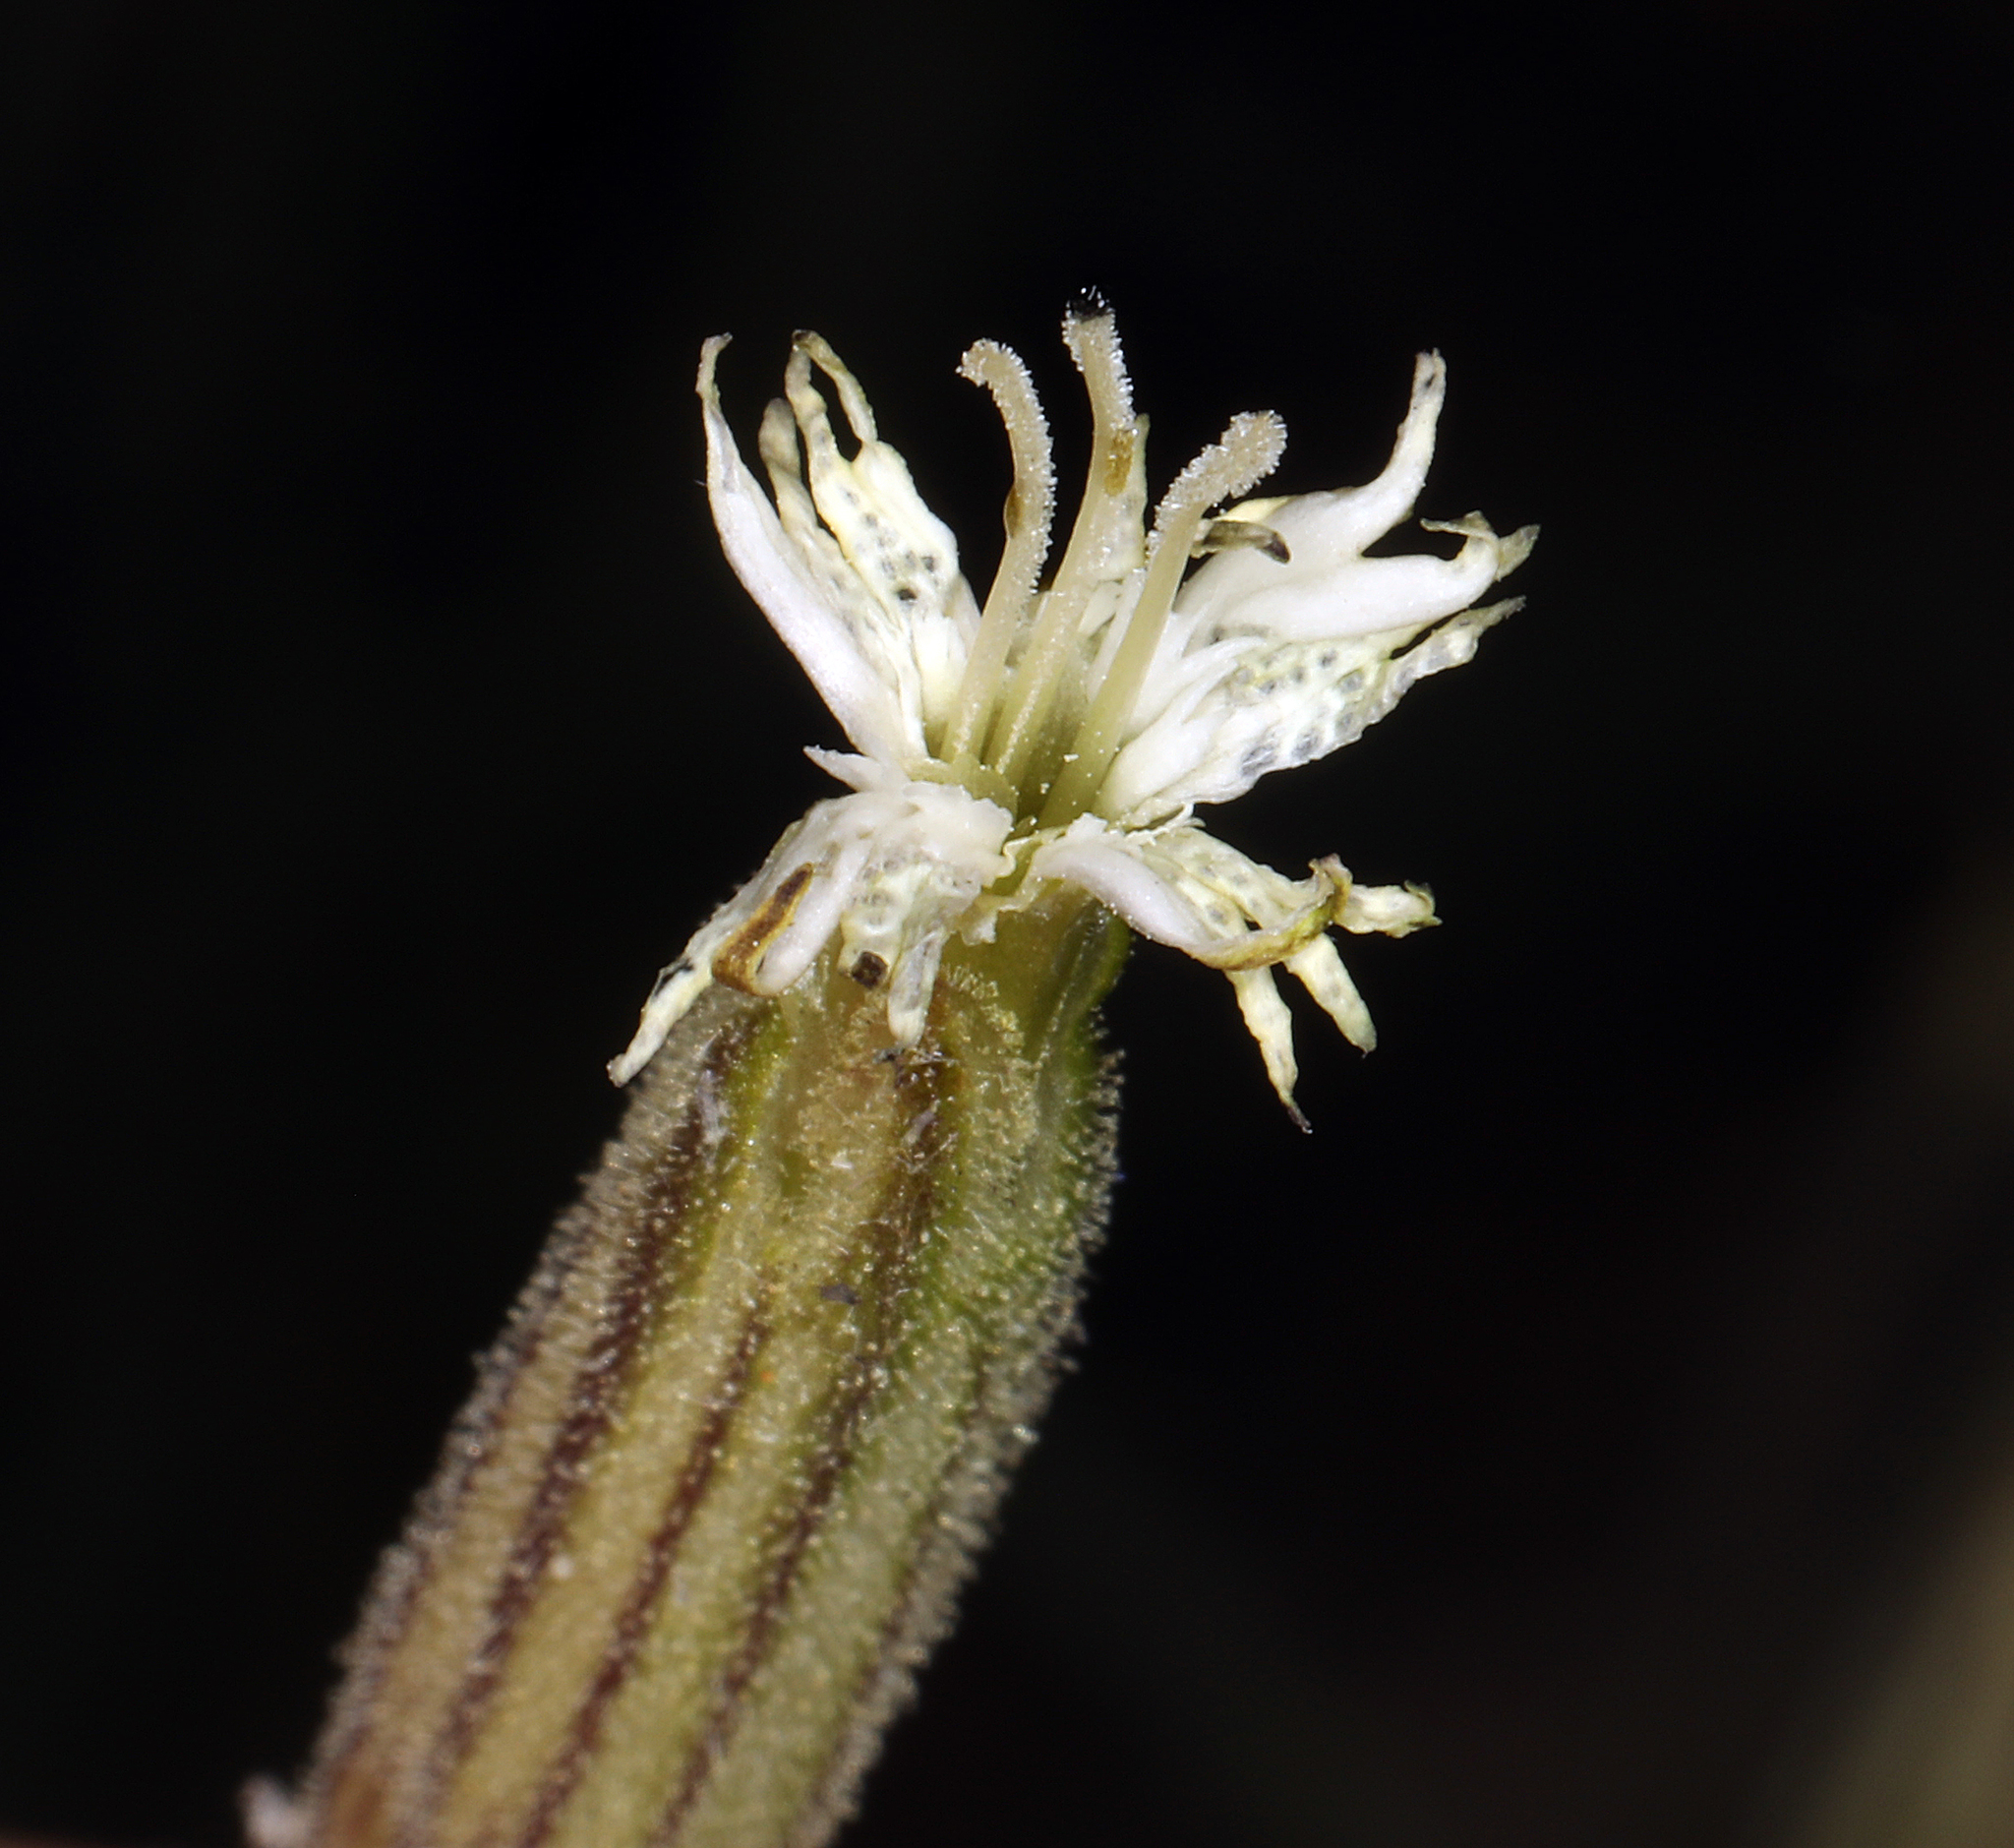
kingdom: Plantae
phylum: Tracheophyta
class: Magnoliopsida
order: Caryophyllales
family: Caryophyllaceae
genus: Silene
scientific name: Silene bernardina
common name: Palmer's catchfly
